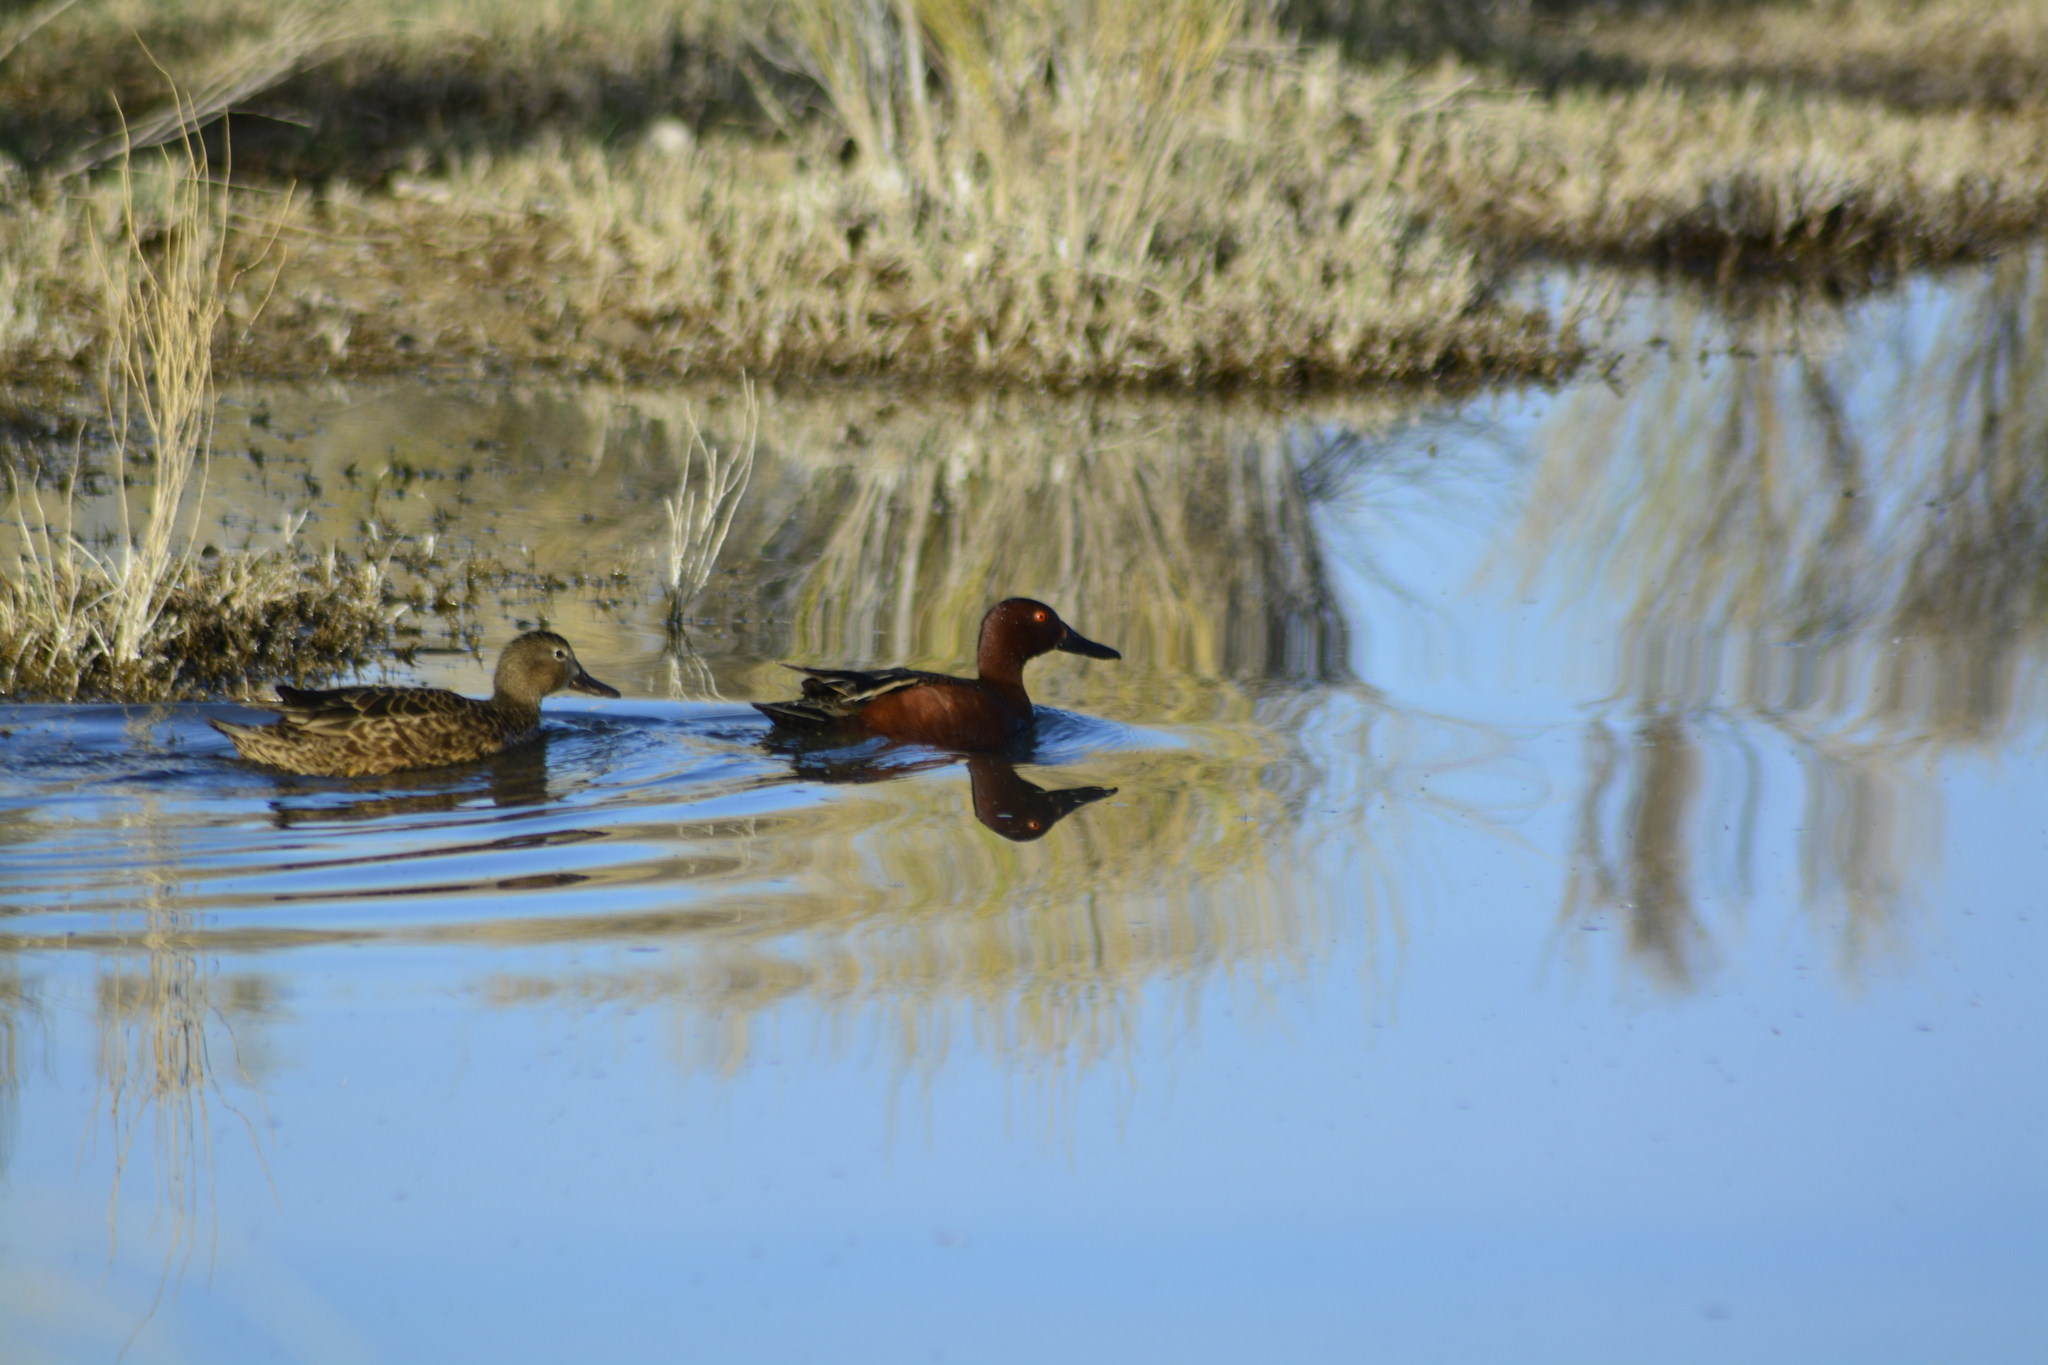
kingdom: Animalia
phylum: Chordata
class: Aves
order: Anseriformes
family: Anatidae
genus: Spatula
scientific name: Spatula cyanoptera
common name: Cinnamon teal
